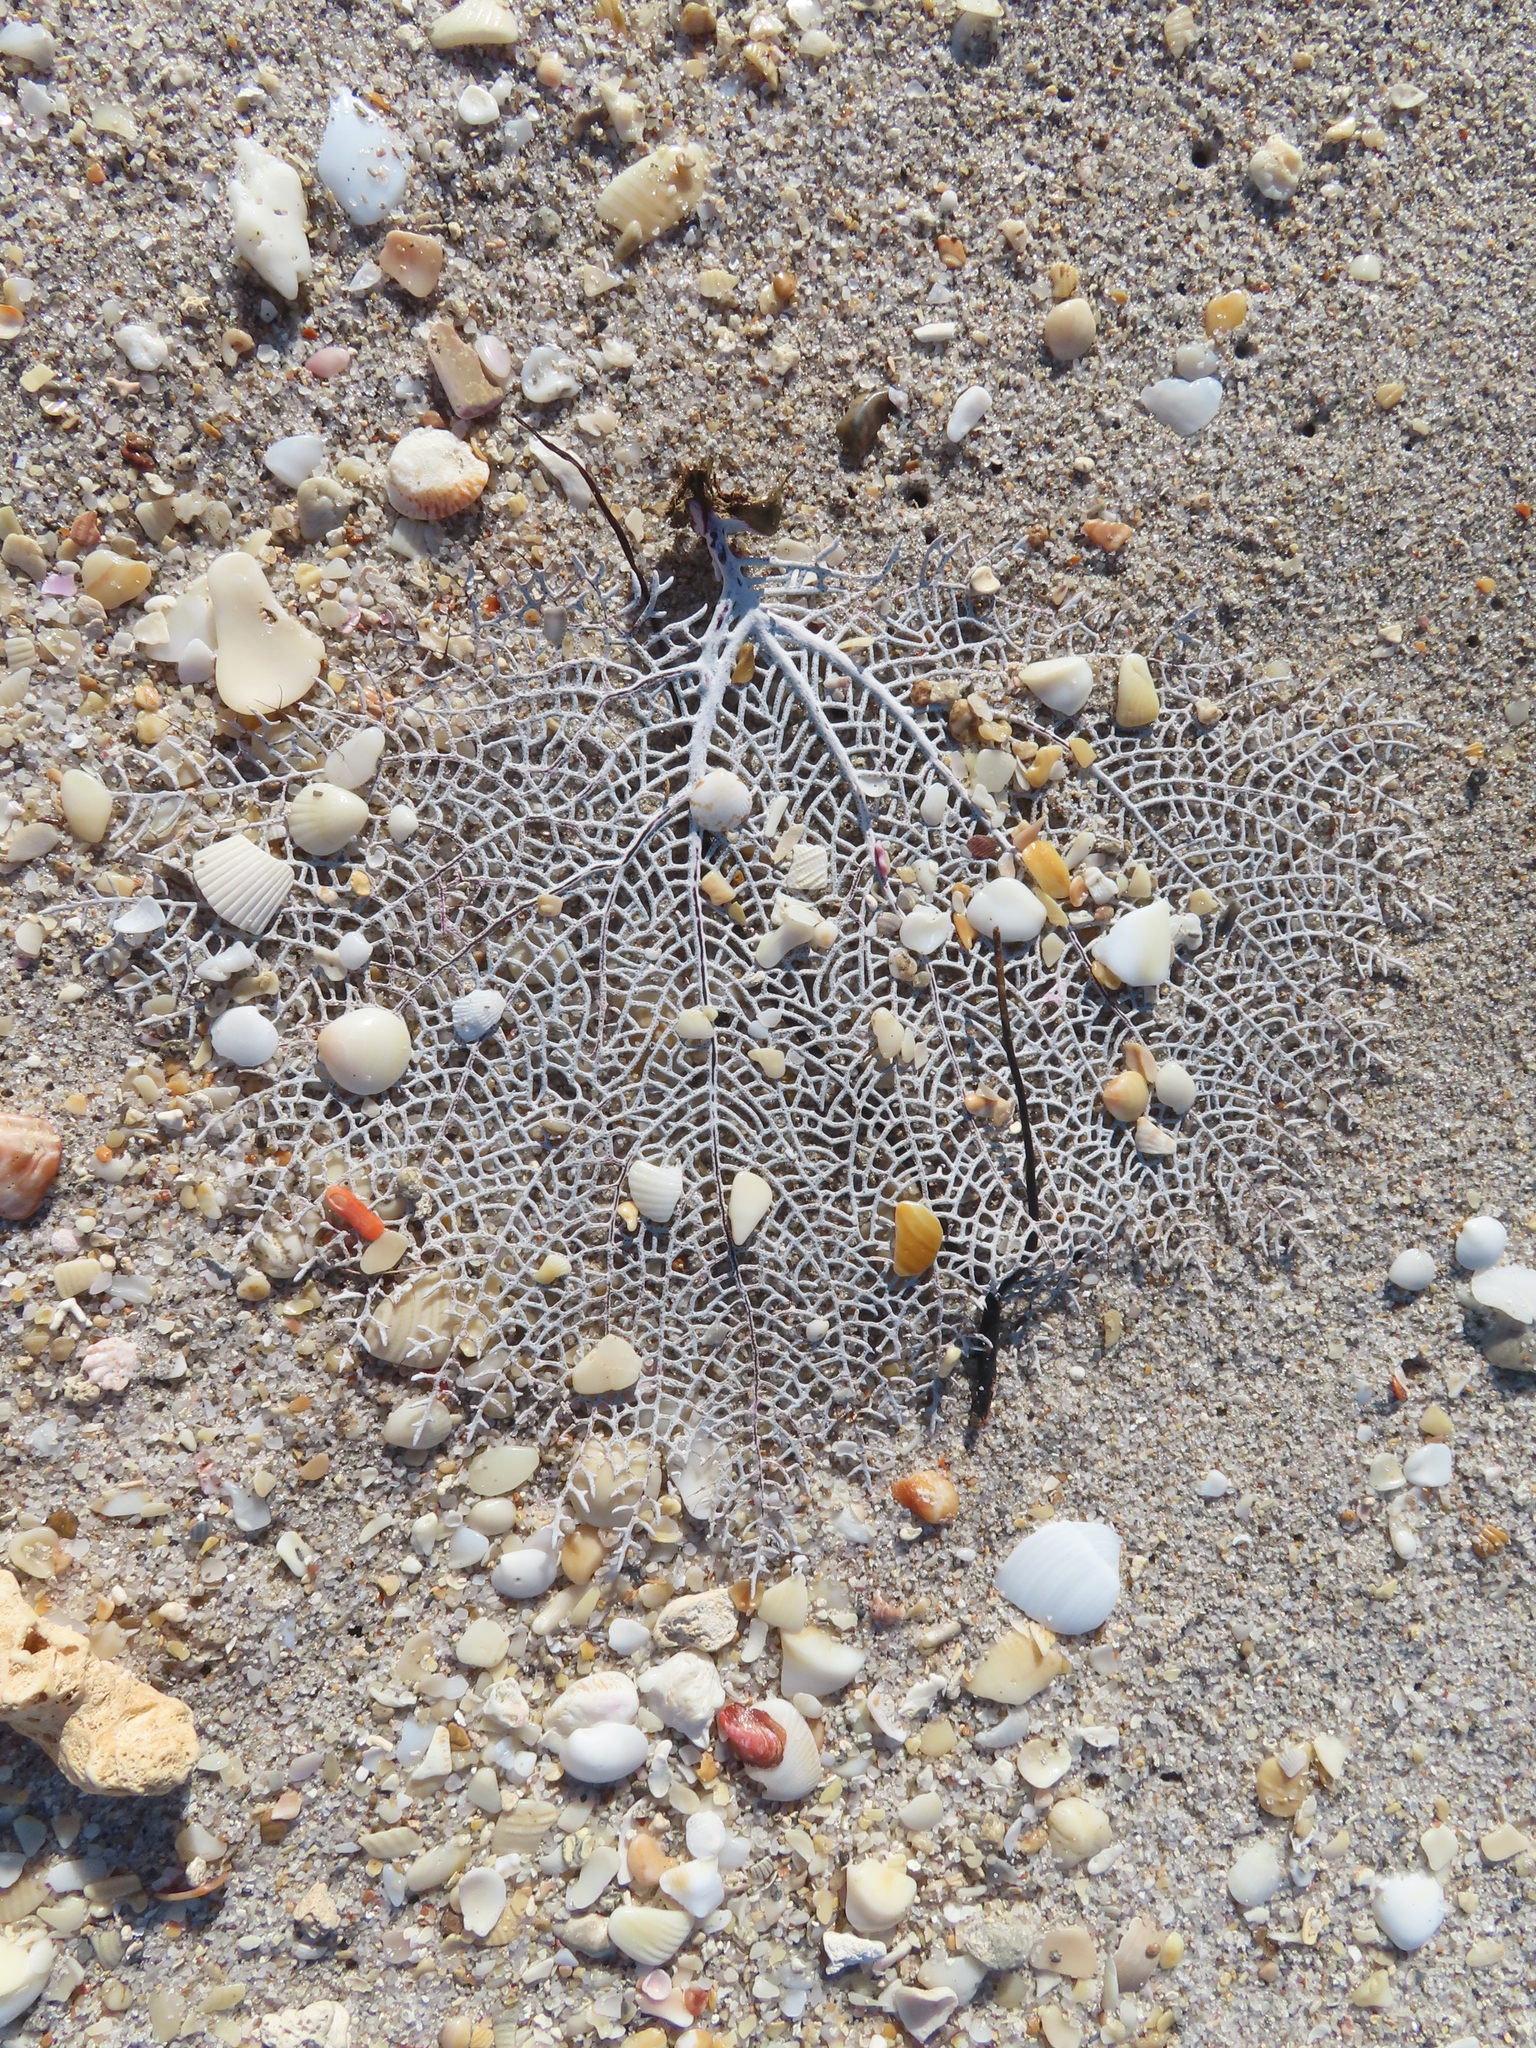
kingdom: Animalia
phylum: Cnidaria
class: Anthozoa
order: Malacalcyonacea
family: Gorgoniidae
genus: Gorgonia
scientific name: Gorgonia ventalina
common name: Common sea fan
